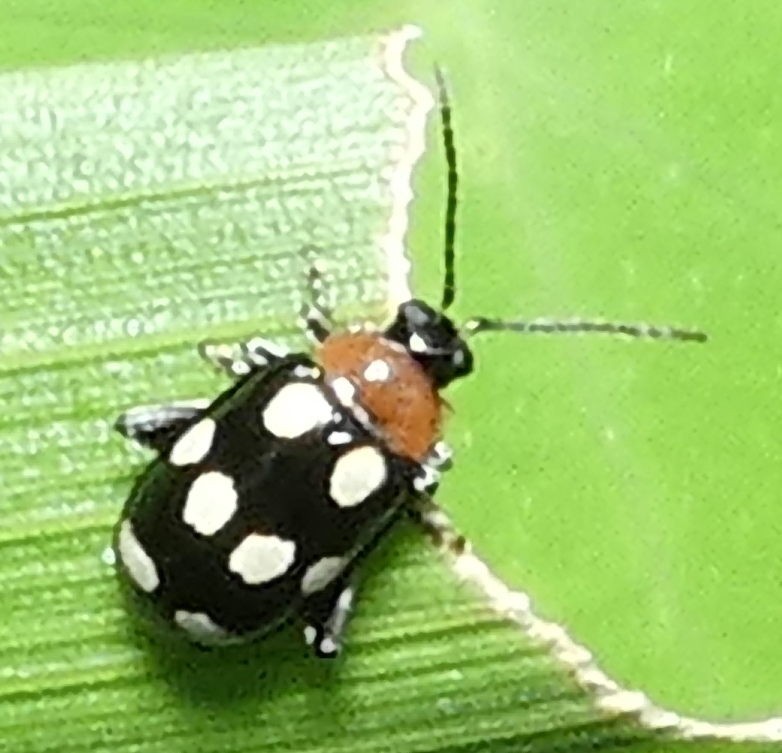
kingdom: Animalia
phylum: Arthropoda
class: Insecta
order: Coleoptera
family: Chrysomelidae
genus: Phenrica
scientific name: Phenrica austriaca
